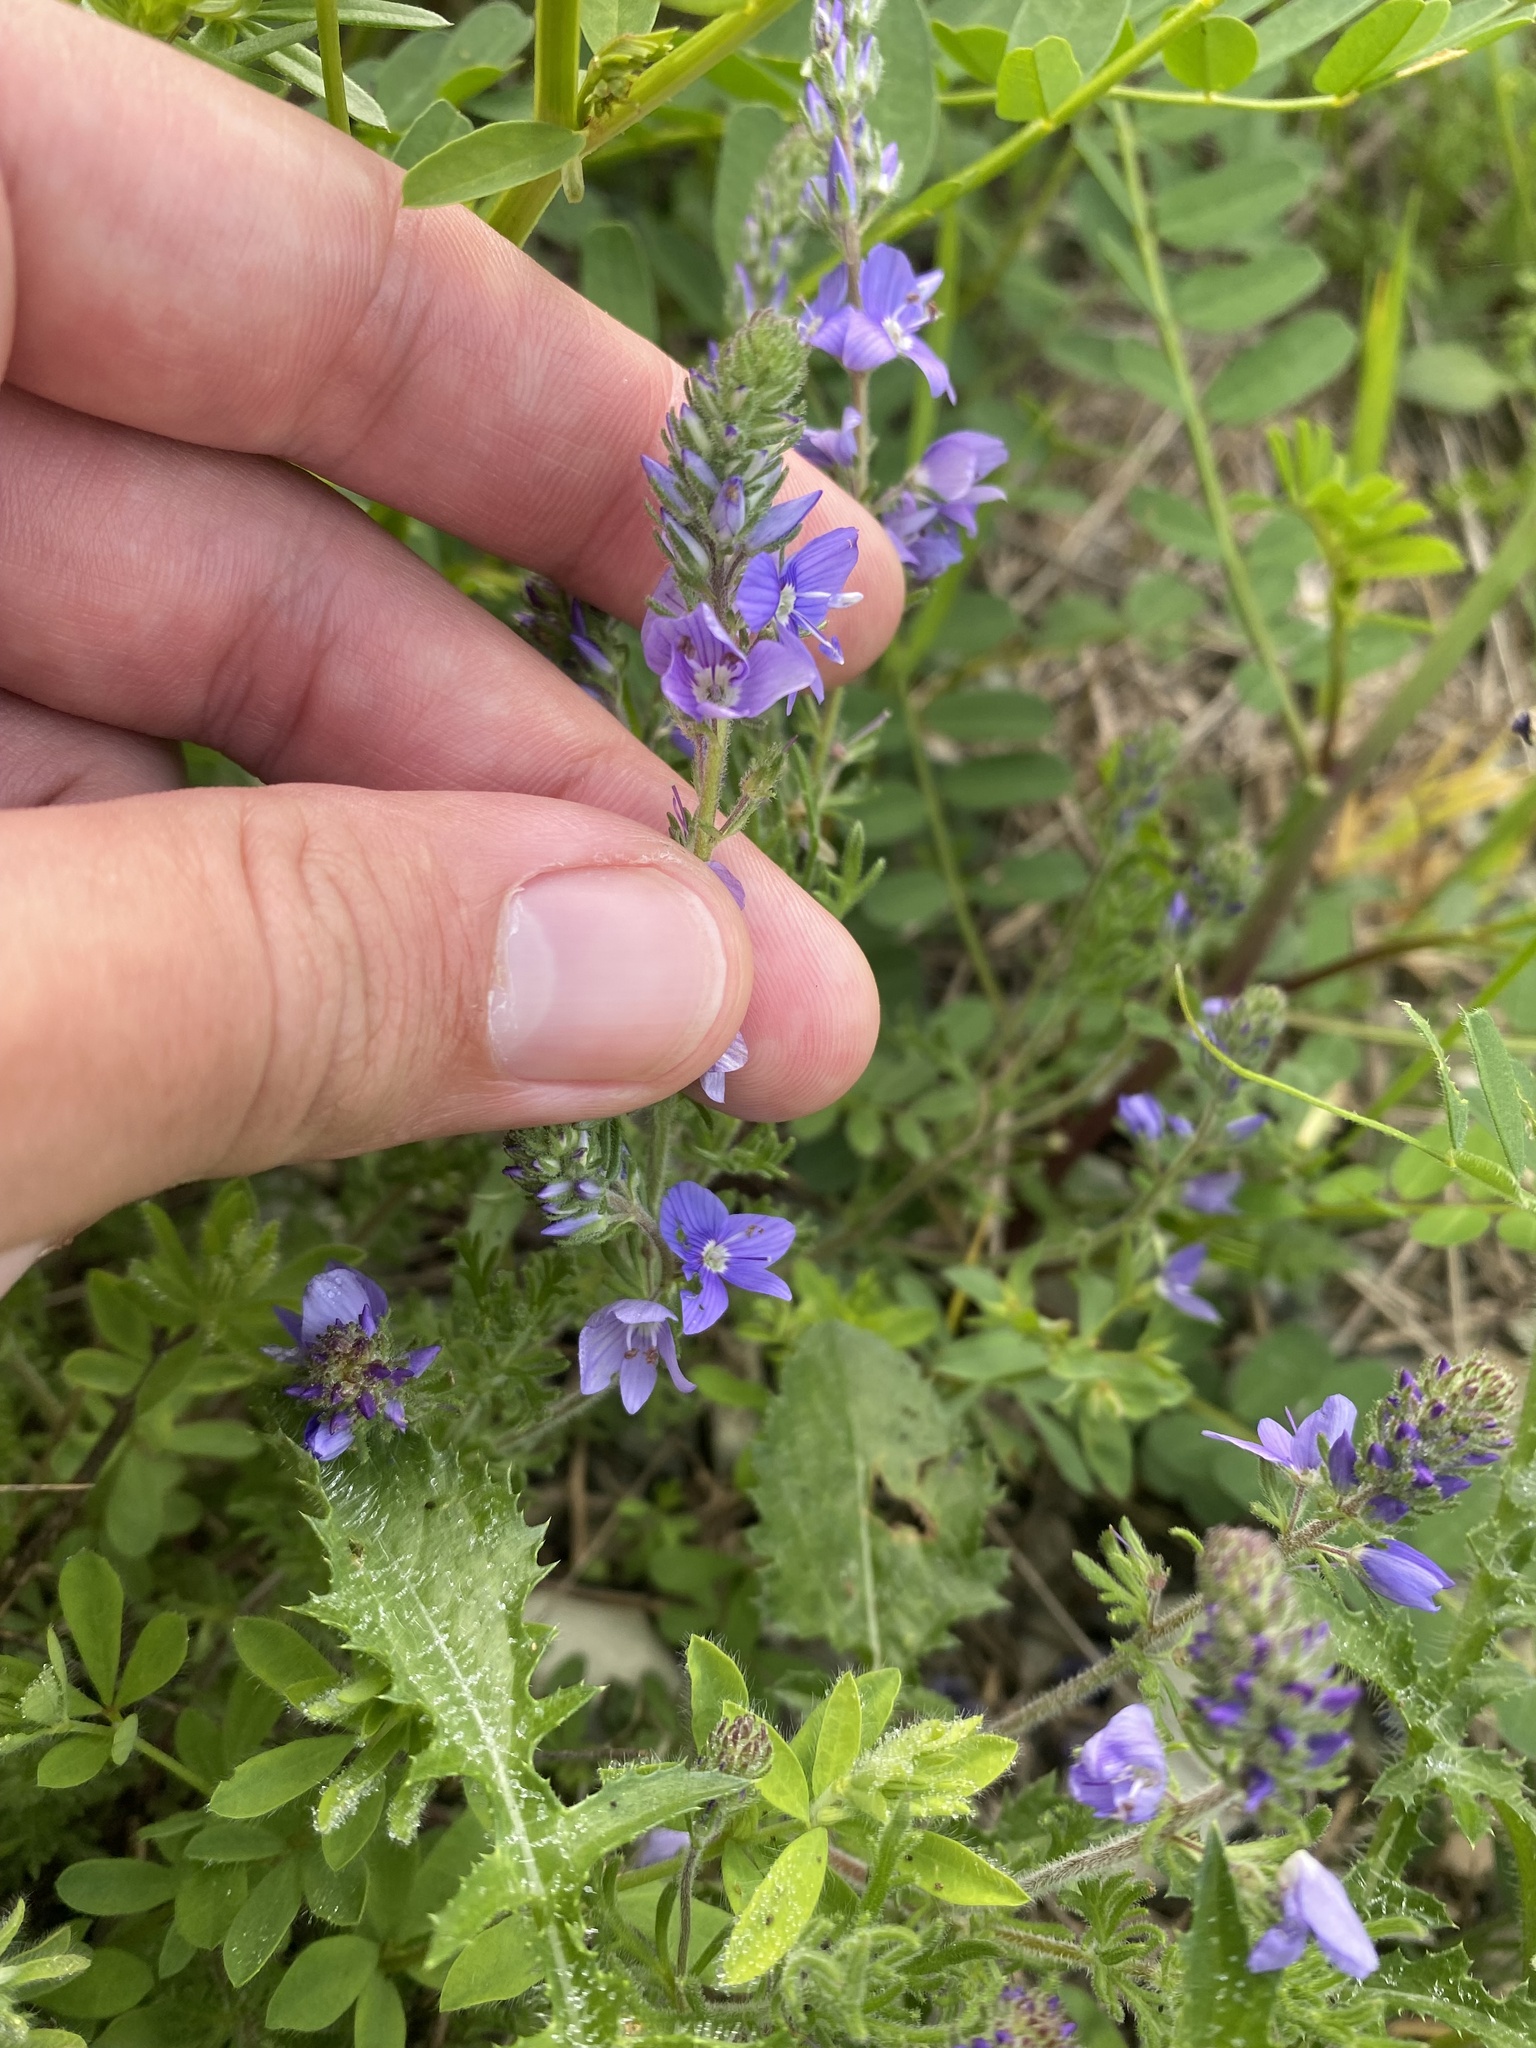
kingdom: Plantae
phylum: Tracheophyta
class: Magnoliopsida
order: Lamiales
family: Plantaginaceae
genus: Veronica
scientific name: Veronica capsellicarpa
